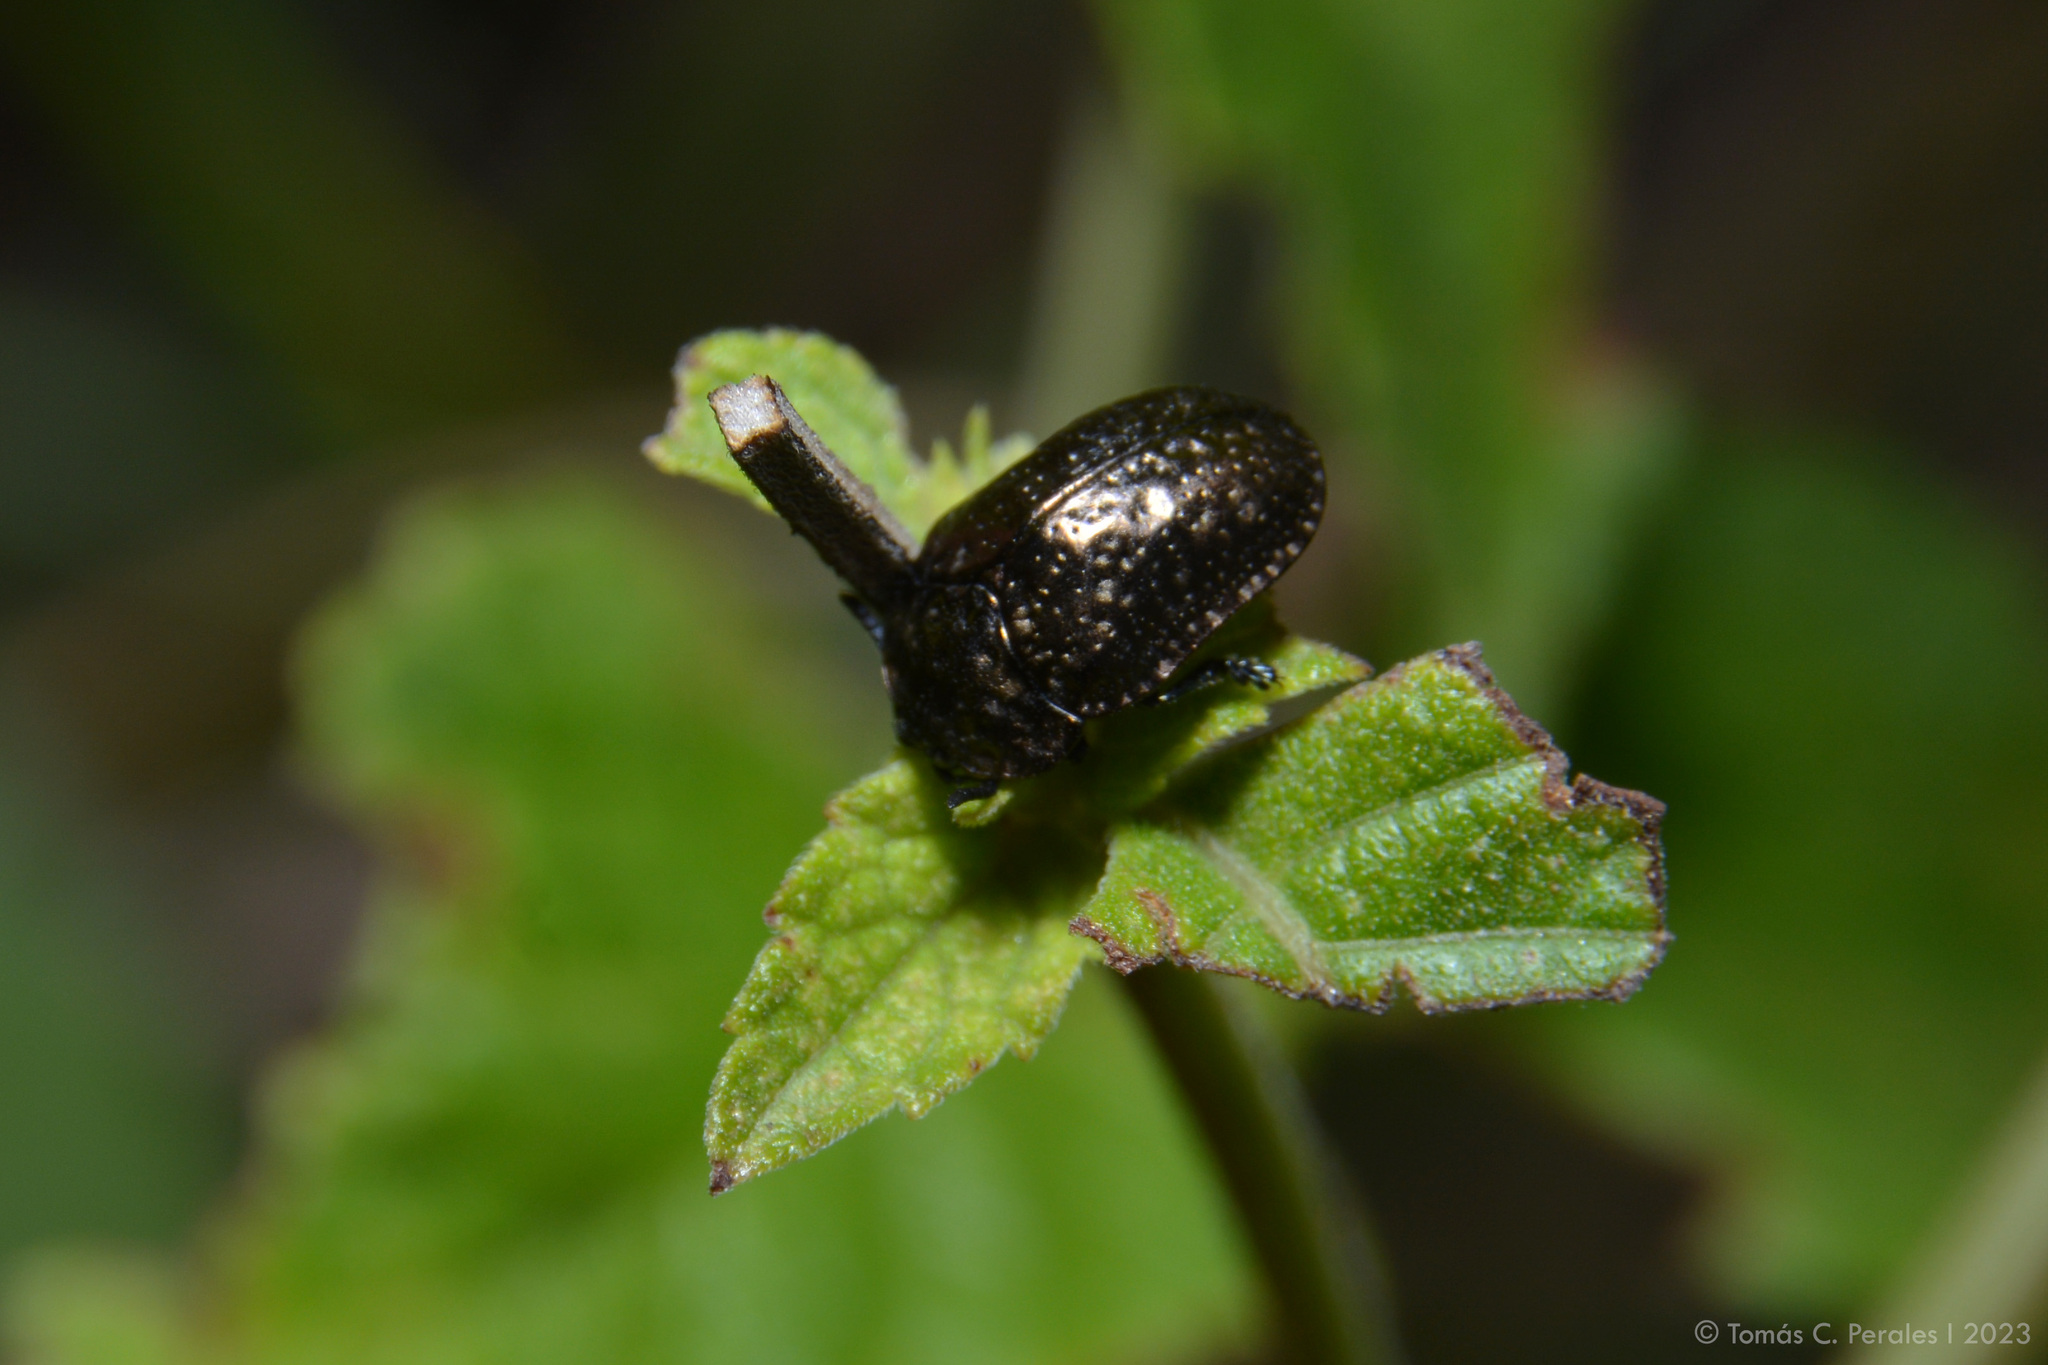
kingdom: Animalia
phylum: Arthropoda
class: Insecta
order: Coleoptera
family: Chrysomelidae
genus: Chlamydocassis
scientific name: Chlamydocassis metallica
